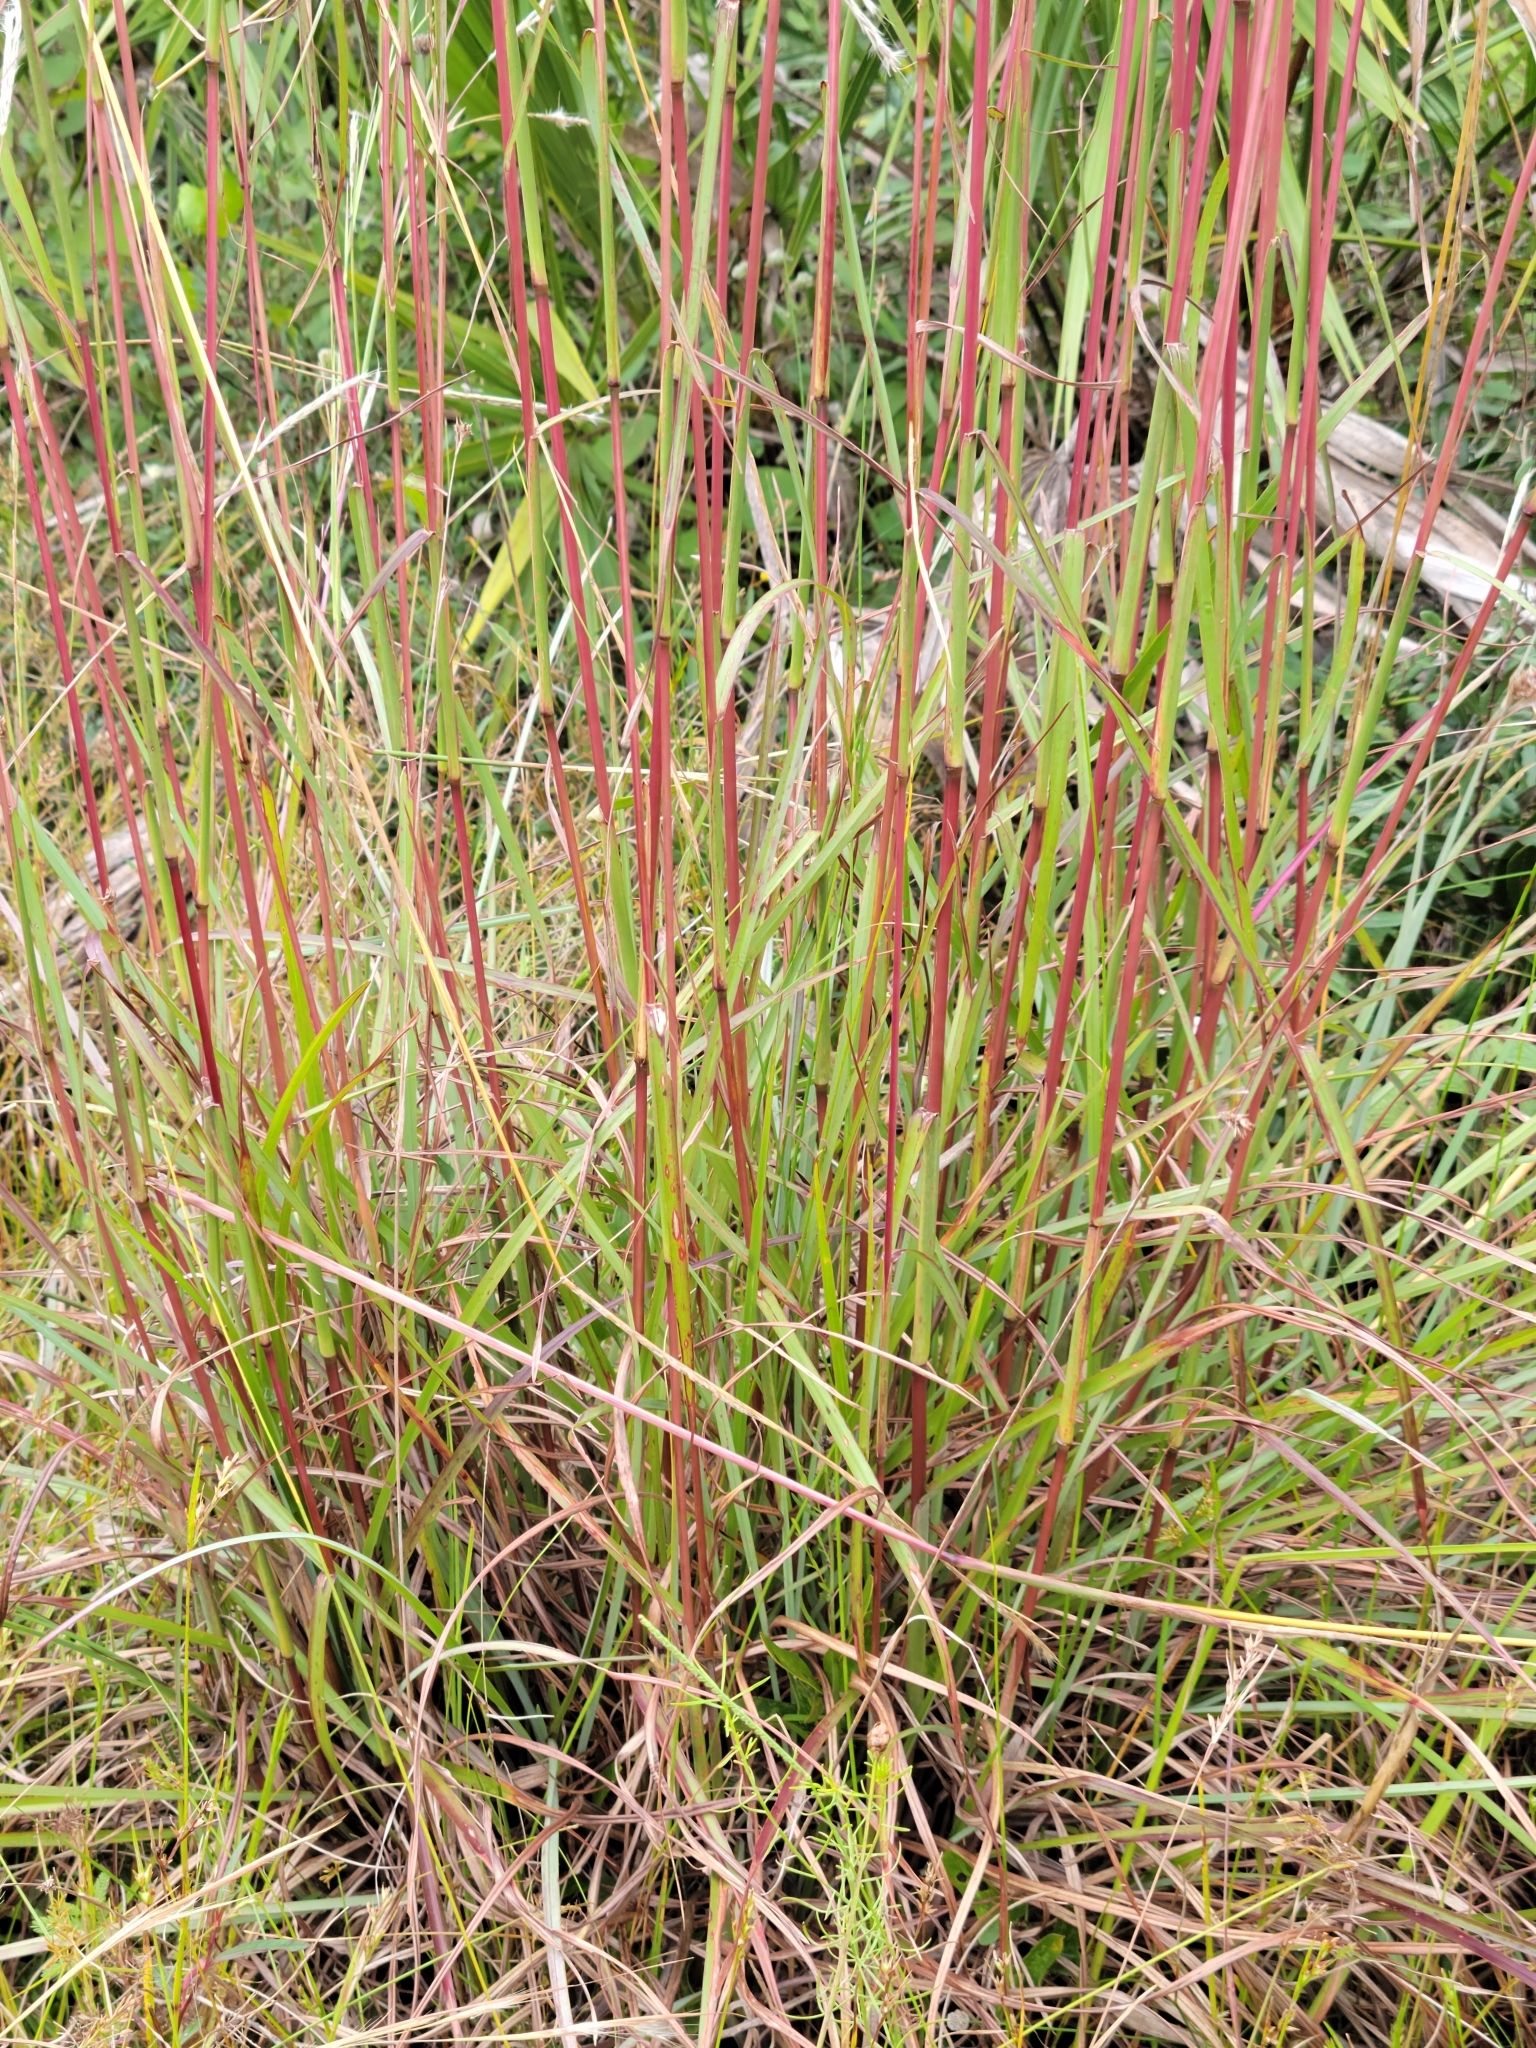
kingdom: Plantae
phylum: Tracheophyta
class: Liliopsida
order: Poales
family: Poaceae
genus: Andropogon
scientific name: Andropogon cabanisii
